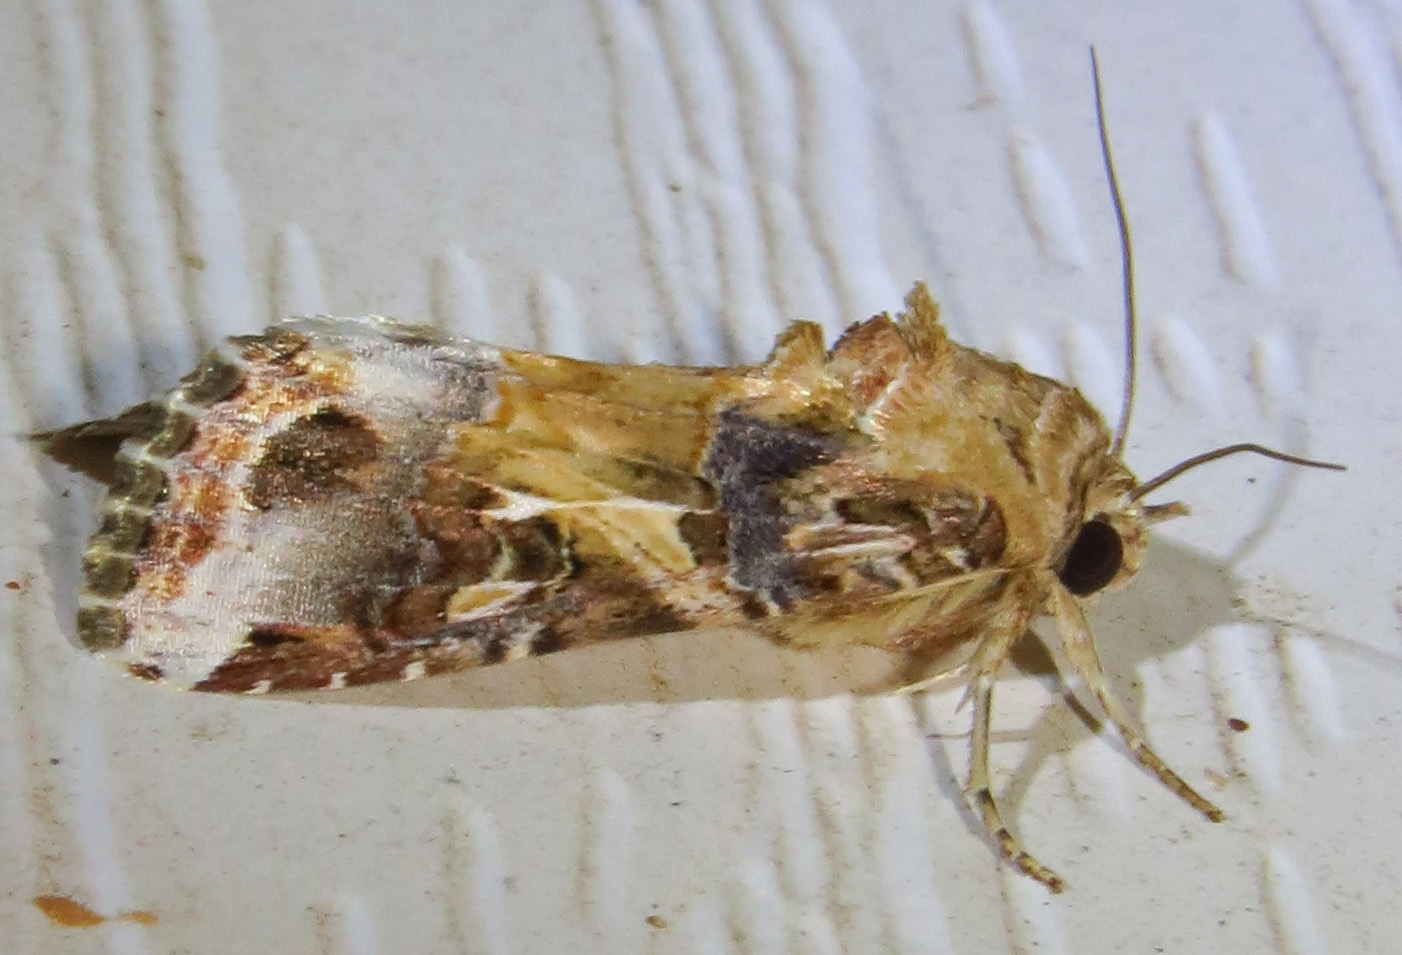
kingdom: Animalia
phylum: Arthropoda
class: Insecta
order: Lepidoptera
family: Noctuidae
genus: Spodoptera
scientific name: Spodoptera ornithogalli
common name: Yellow-striped armyworm
